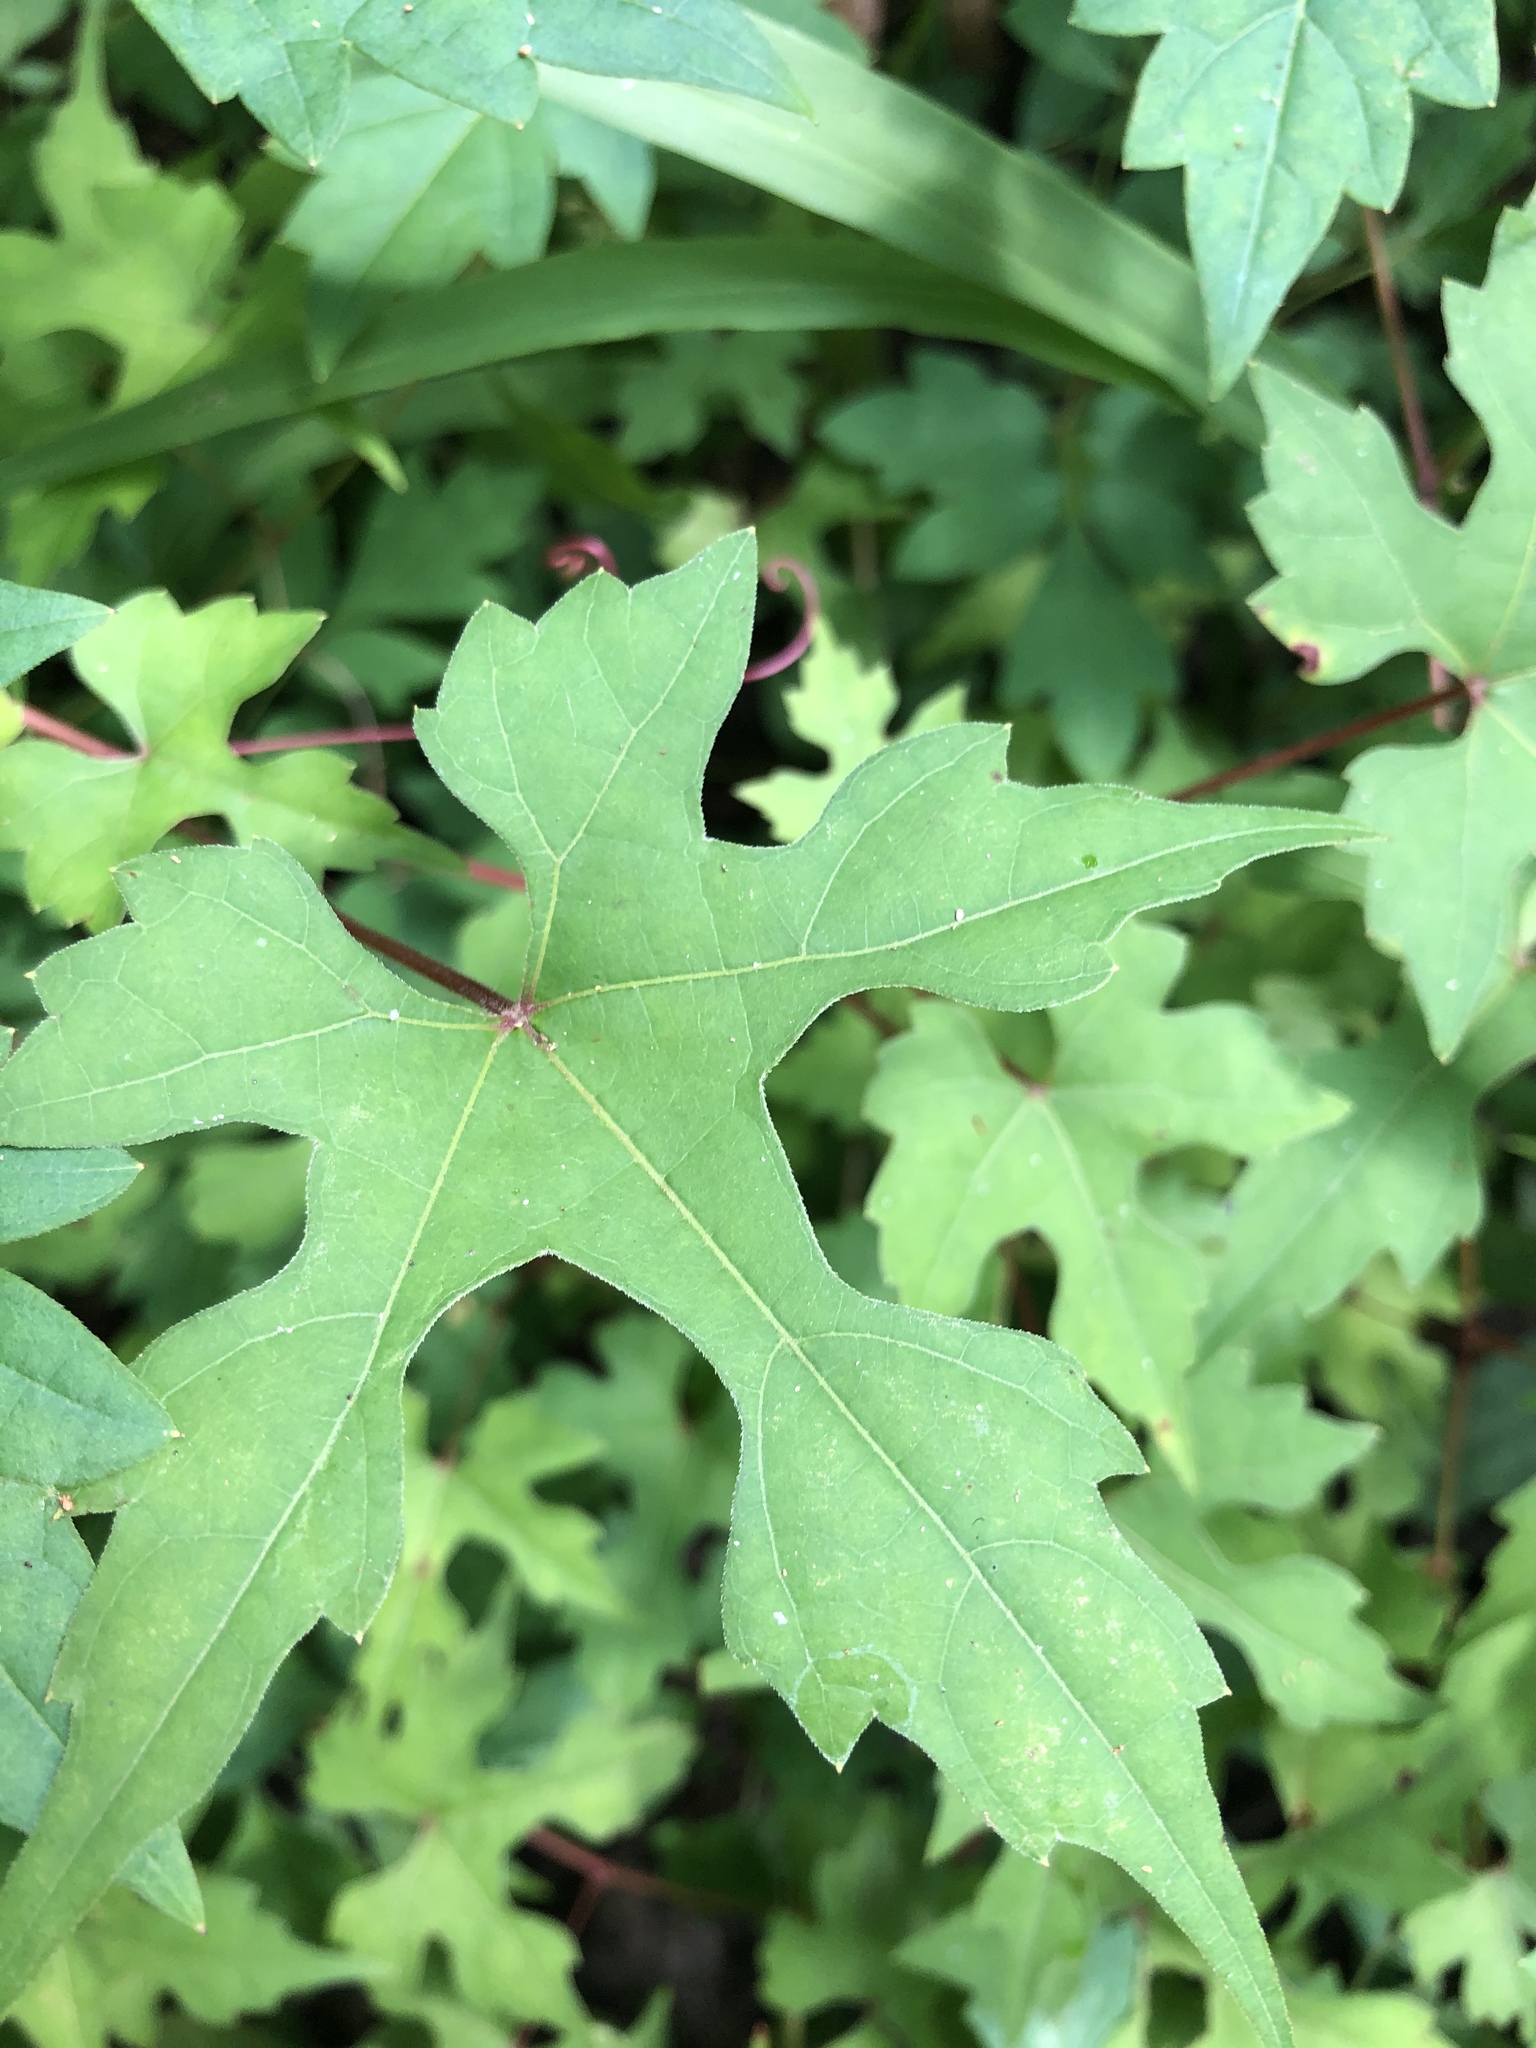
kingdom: Plantae
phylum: Tracheophyta
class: Magnoliopsida
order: Vitales
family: Vitaceae
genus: Vitis
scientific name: Vitis palmata
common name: Catbird grape
